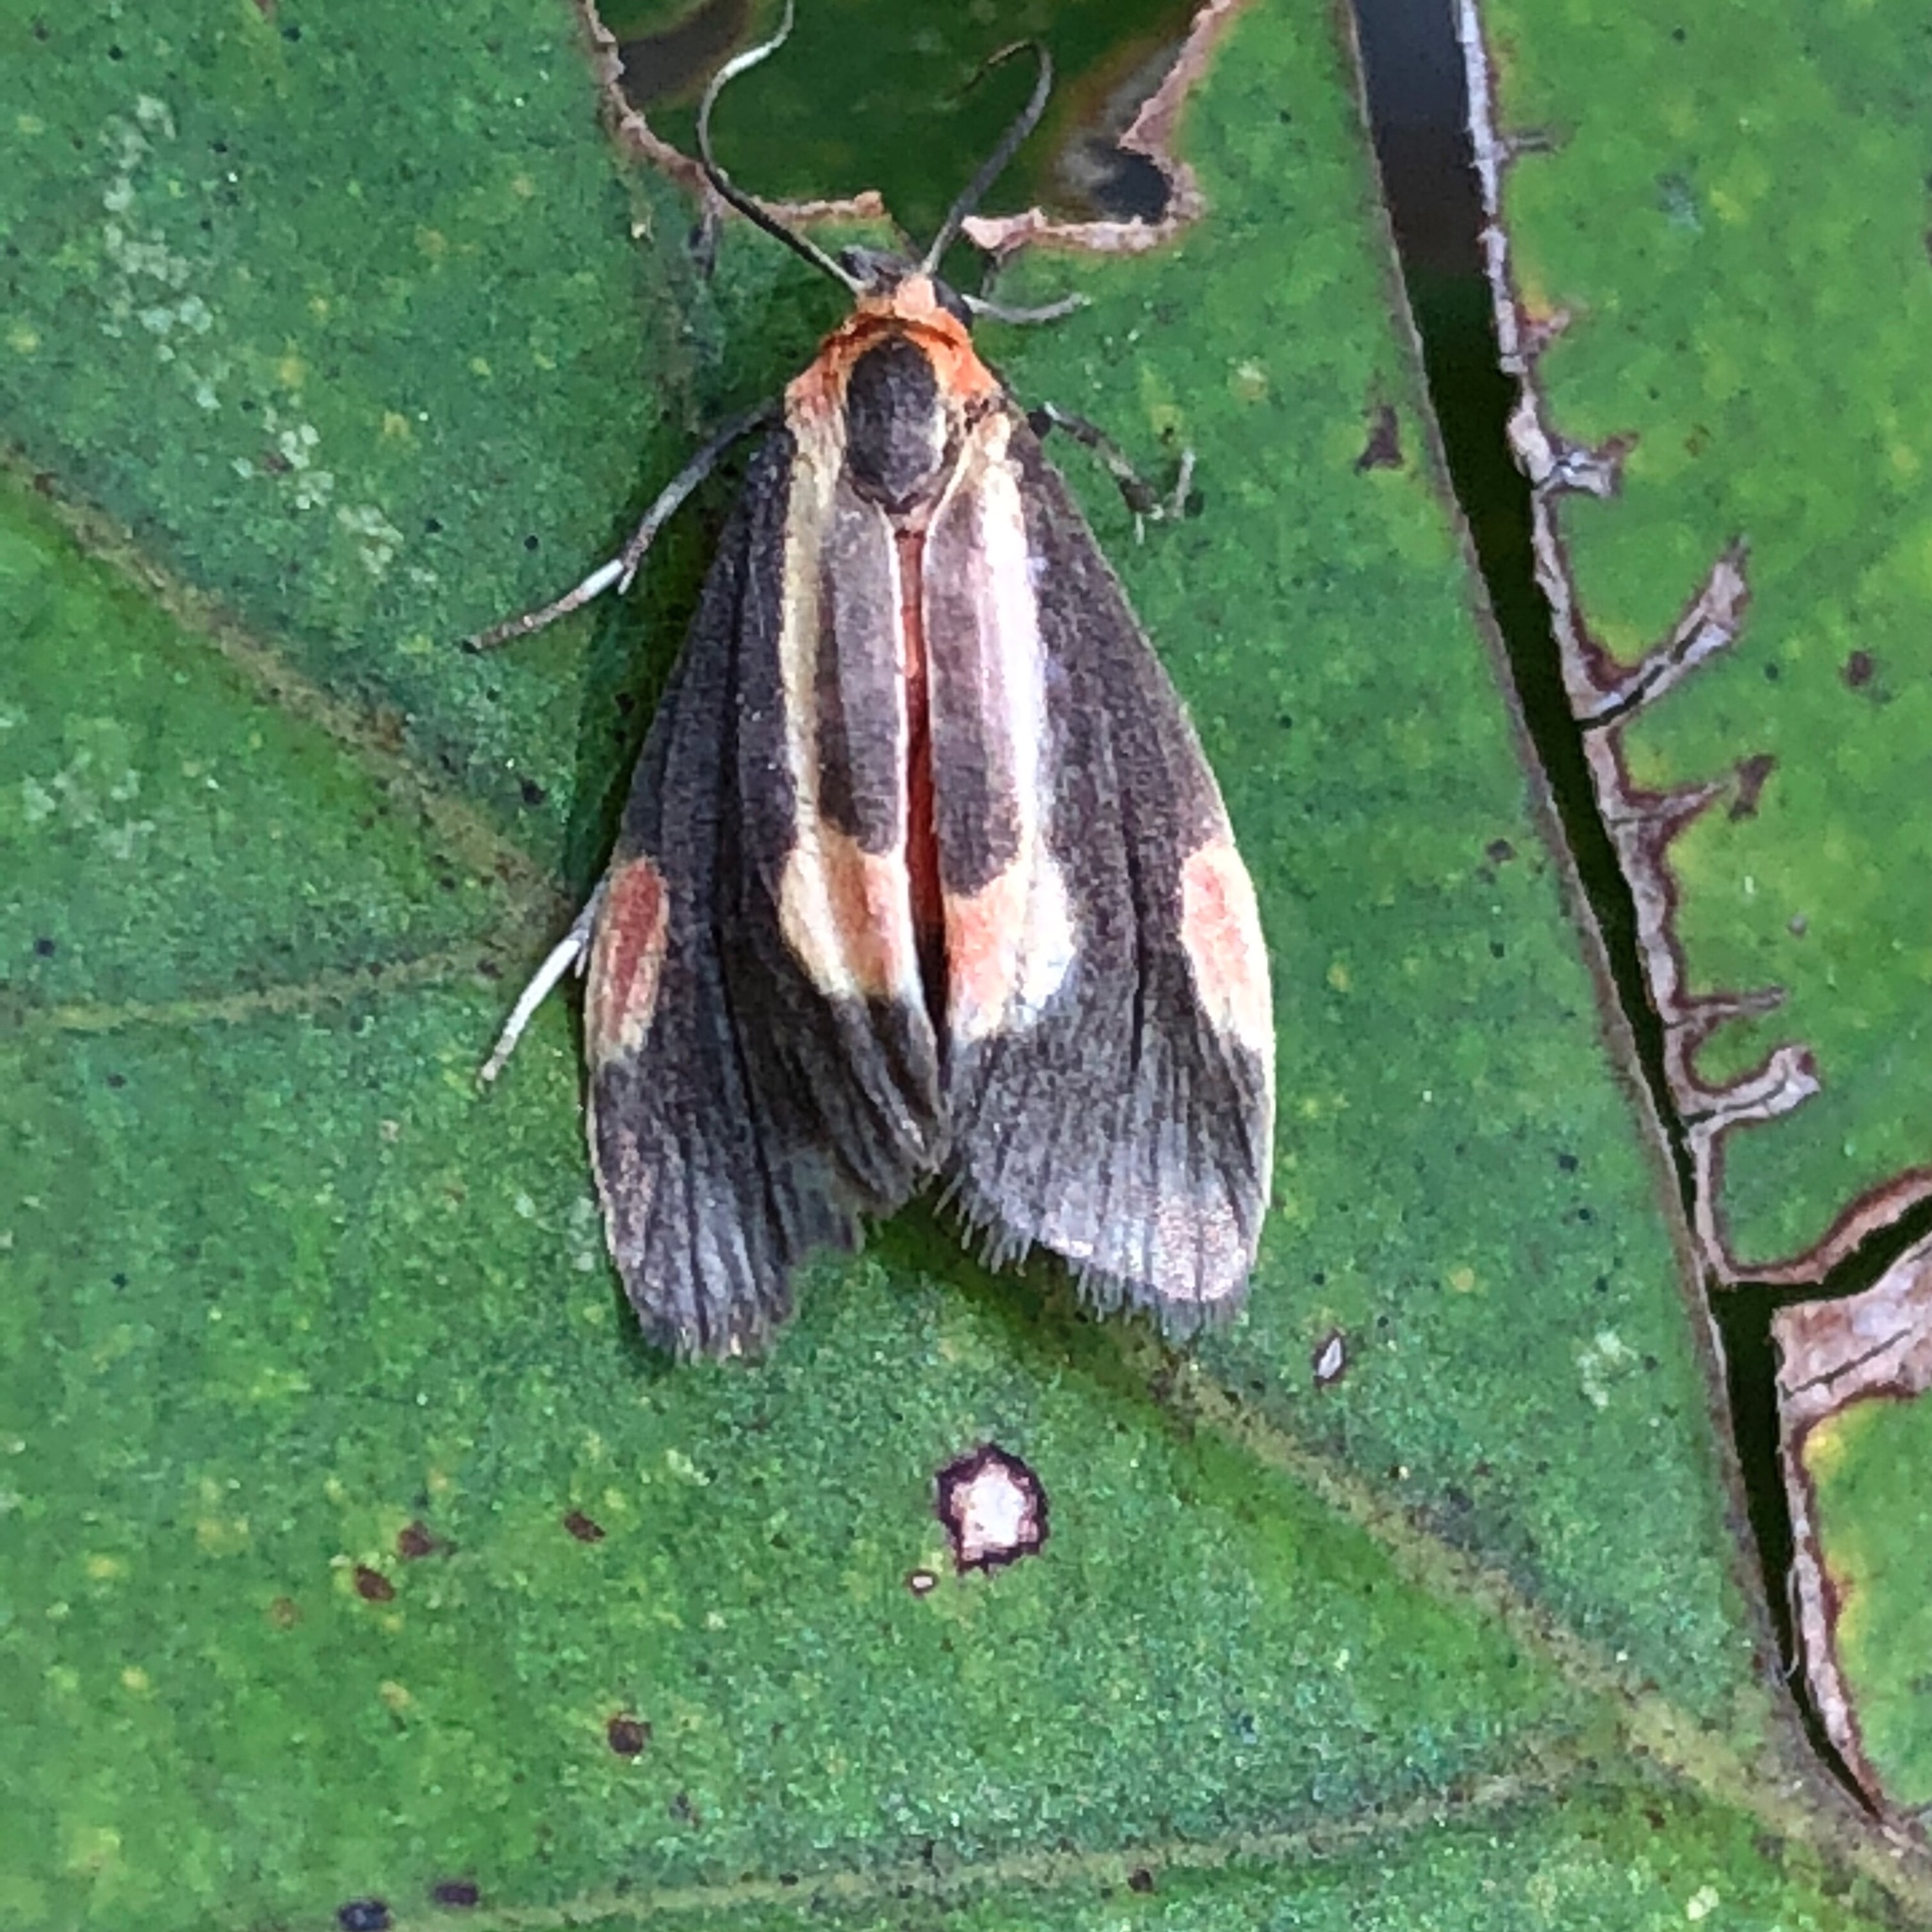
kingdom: Animalia
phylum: Arthropoda
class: Insecta
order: Lepidoptera
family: Erebidae
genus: Cisthene
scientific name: Cisthene packardii
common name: Packard's lichen moth
